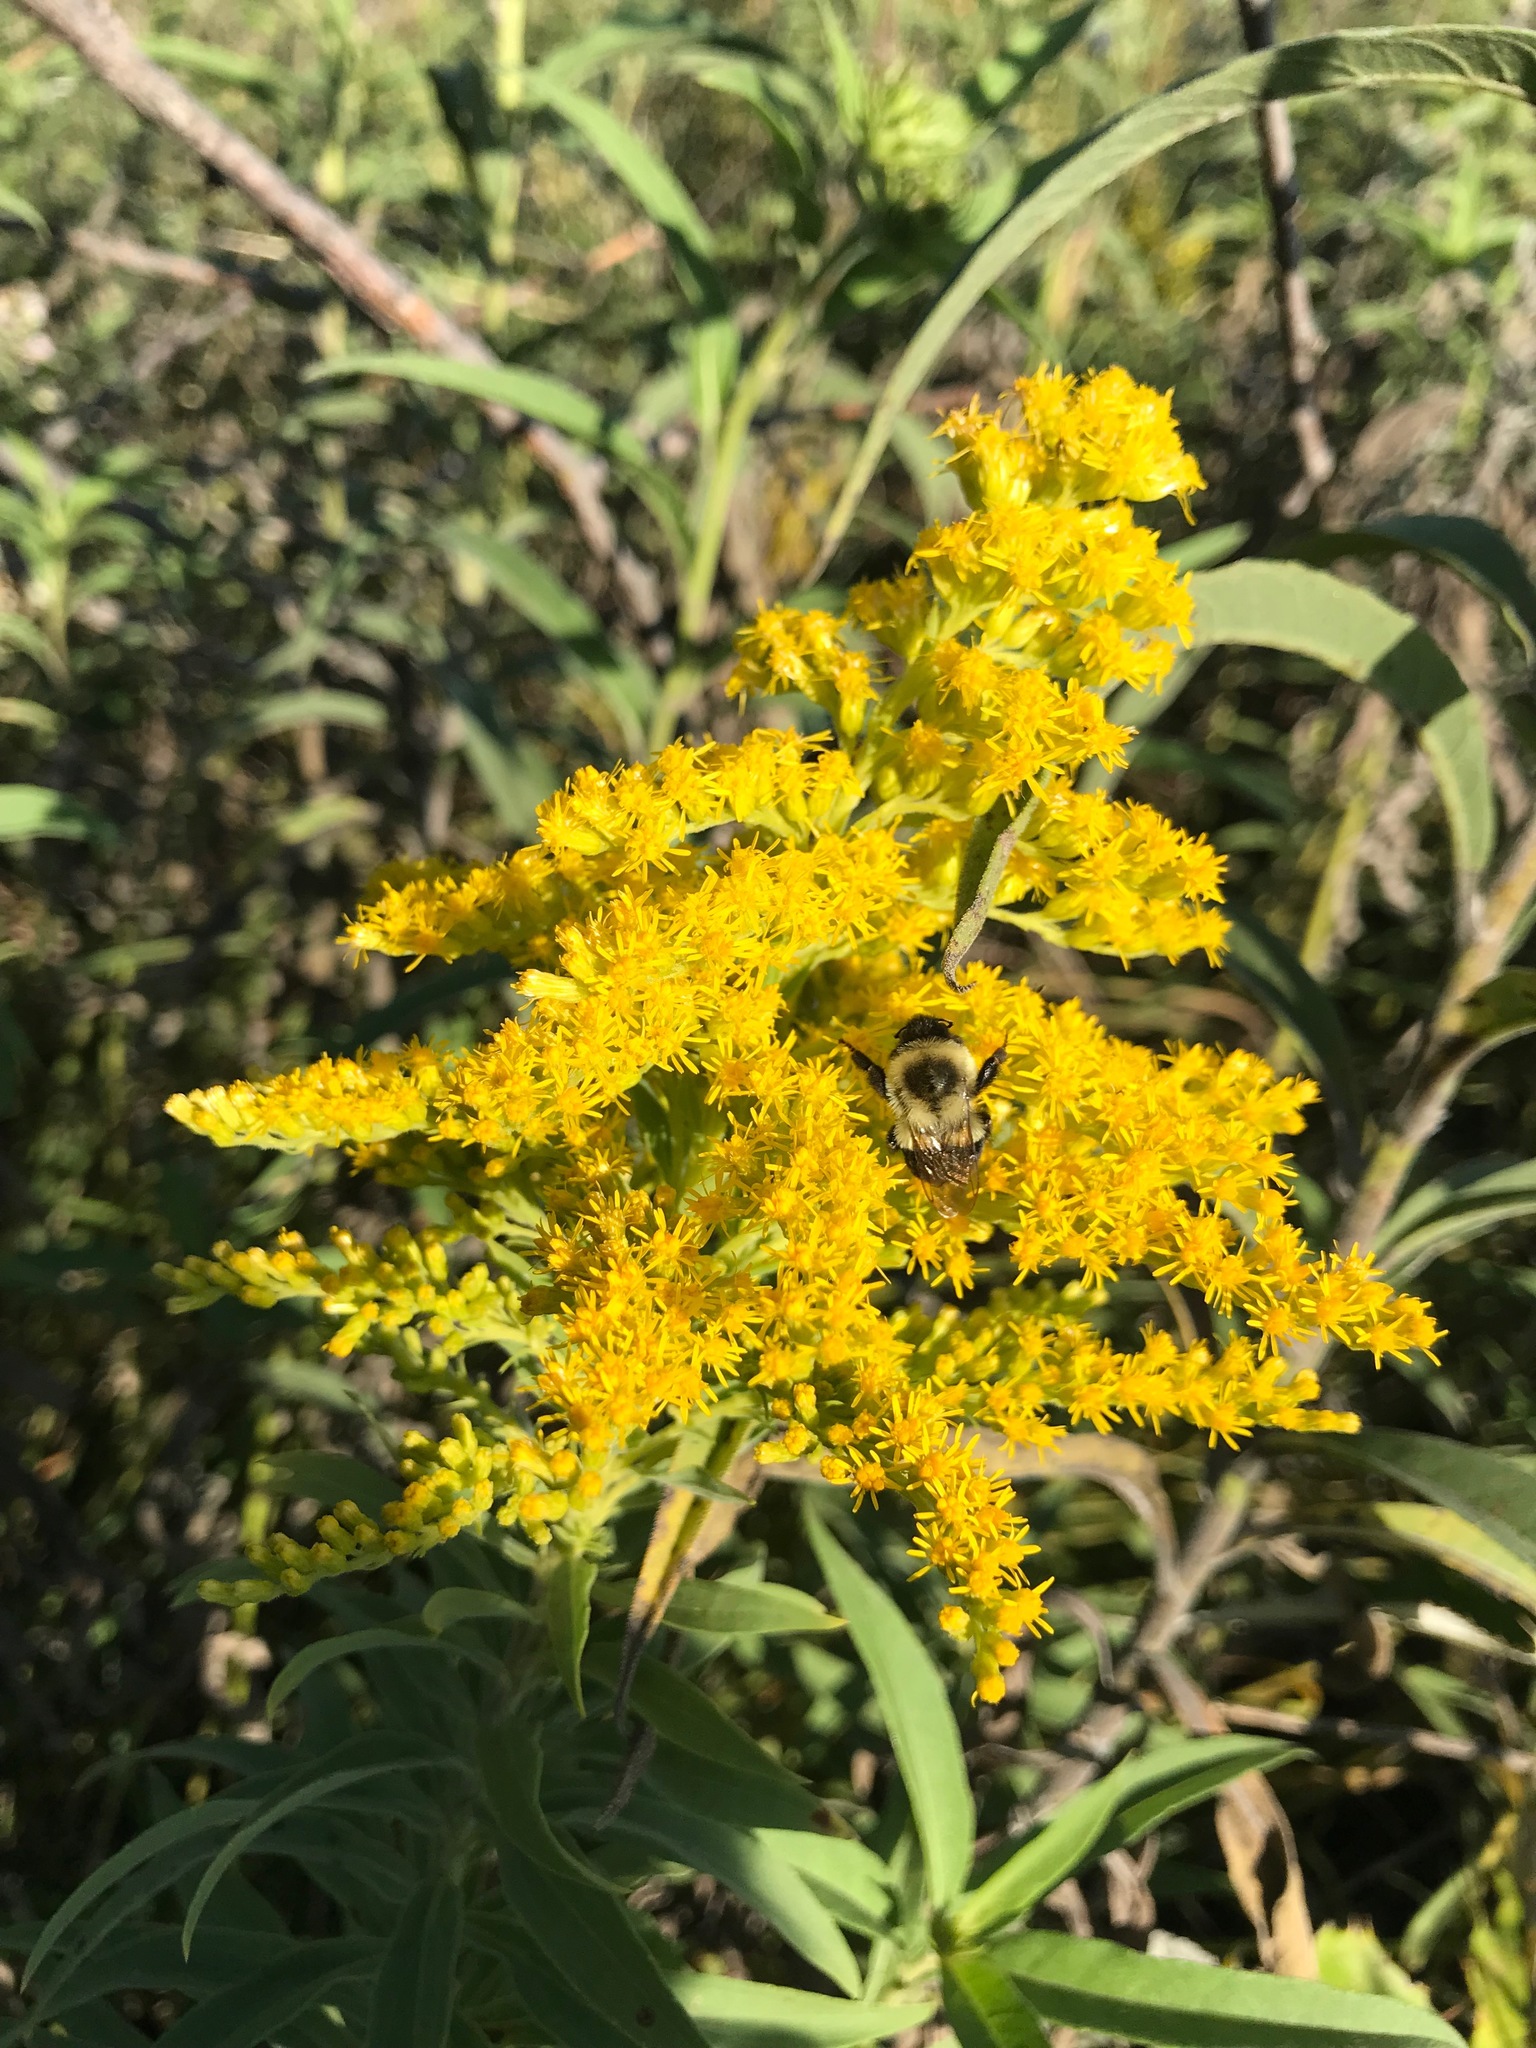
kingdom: Animalia
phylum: Arthropoda
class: Insecta
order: Hymenoptera
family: Apidae
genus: Bombus
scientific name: Bombus impatiens
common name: Common eastern bumble bee
